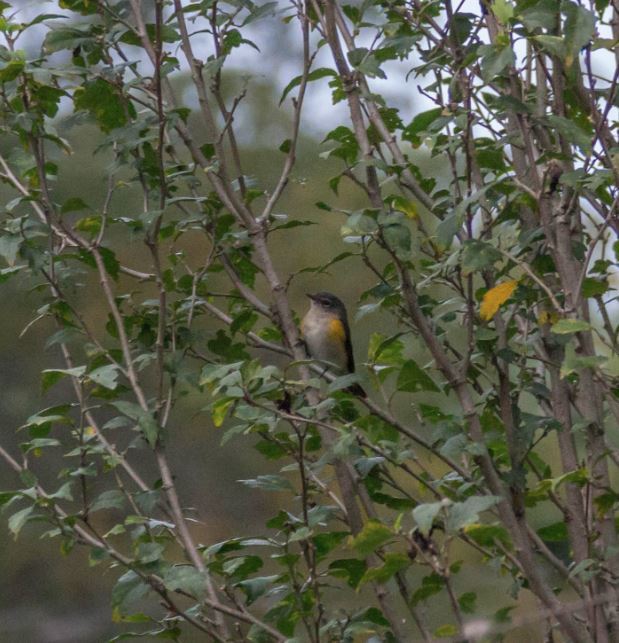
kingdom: Animalia
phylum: Chordata
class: Aves
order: Passeriformes
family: Parulidae
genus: Setophaga
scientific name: Setophaga ruticilla
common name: American redstart
